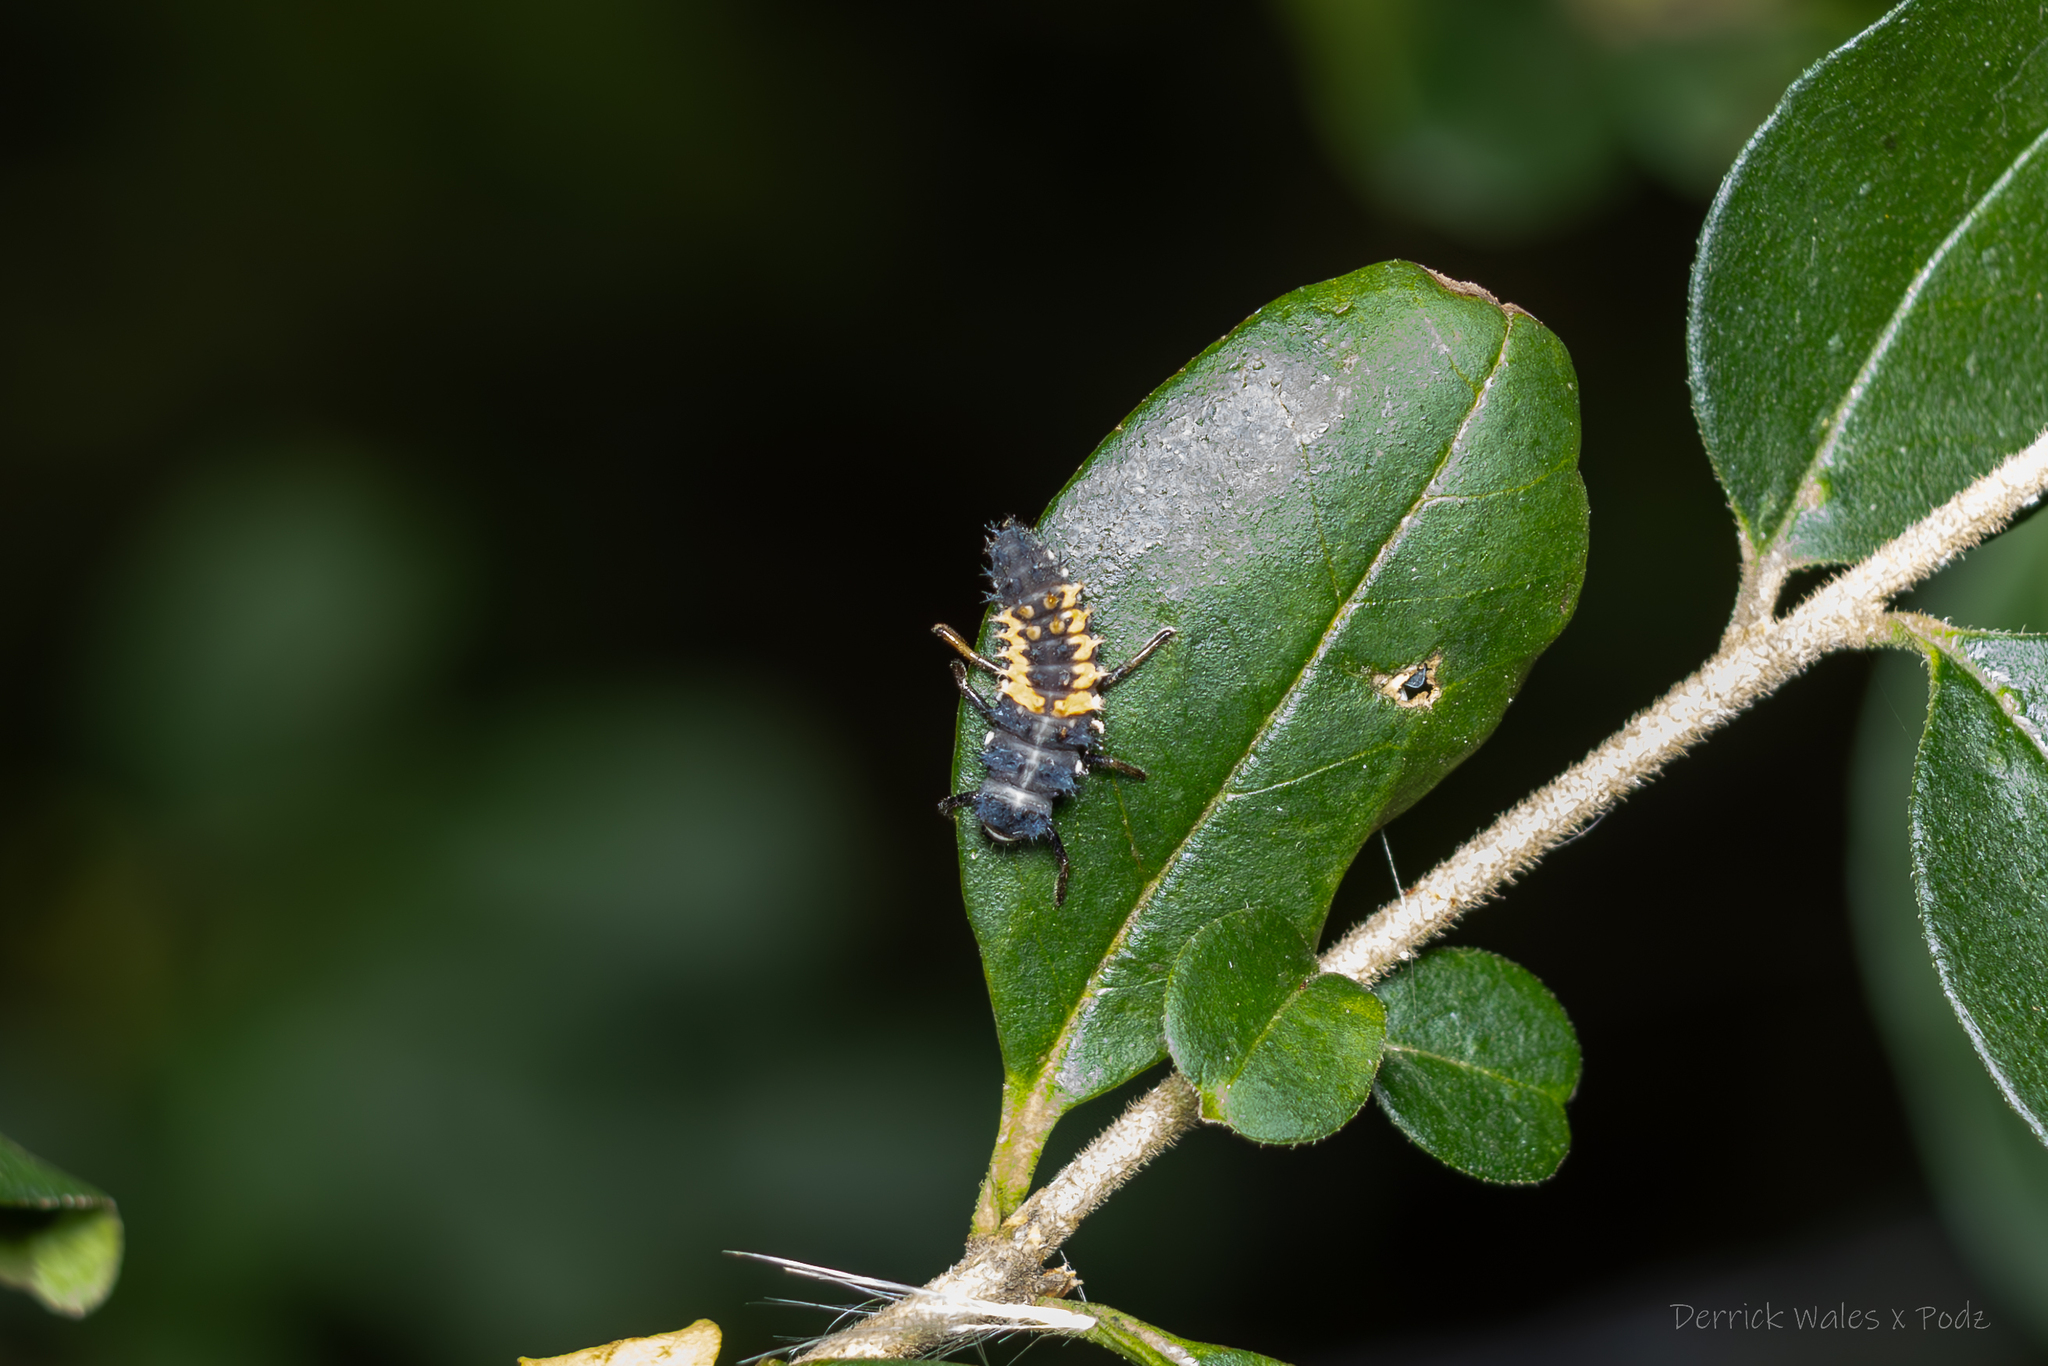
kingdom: Animalia
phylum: Arthropoda
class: Insecta
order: Coleoptera
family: Coccinellidae
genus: Harmonia
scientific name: Harmonia axyridis
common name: Harlequin ladybird
